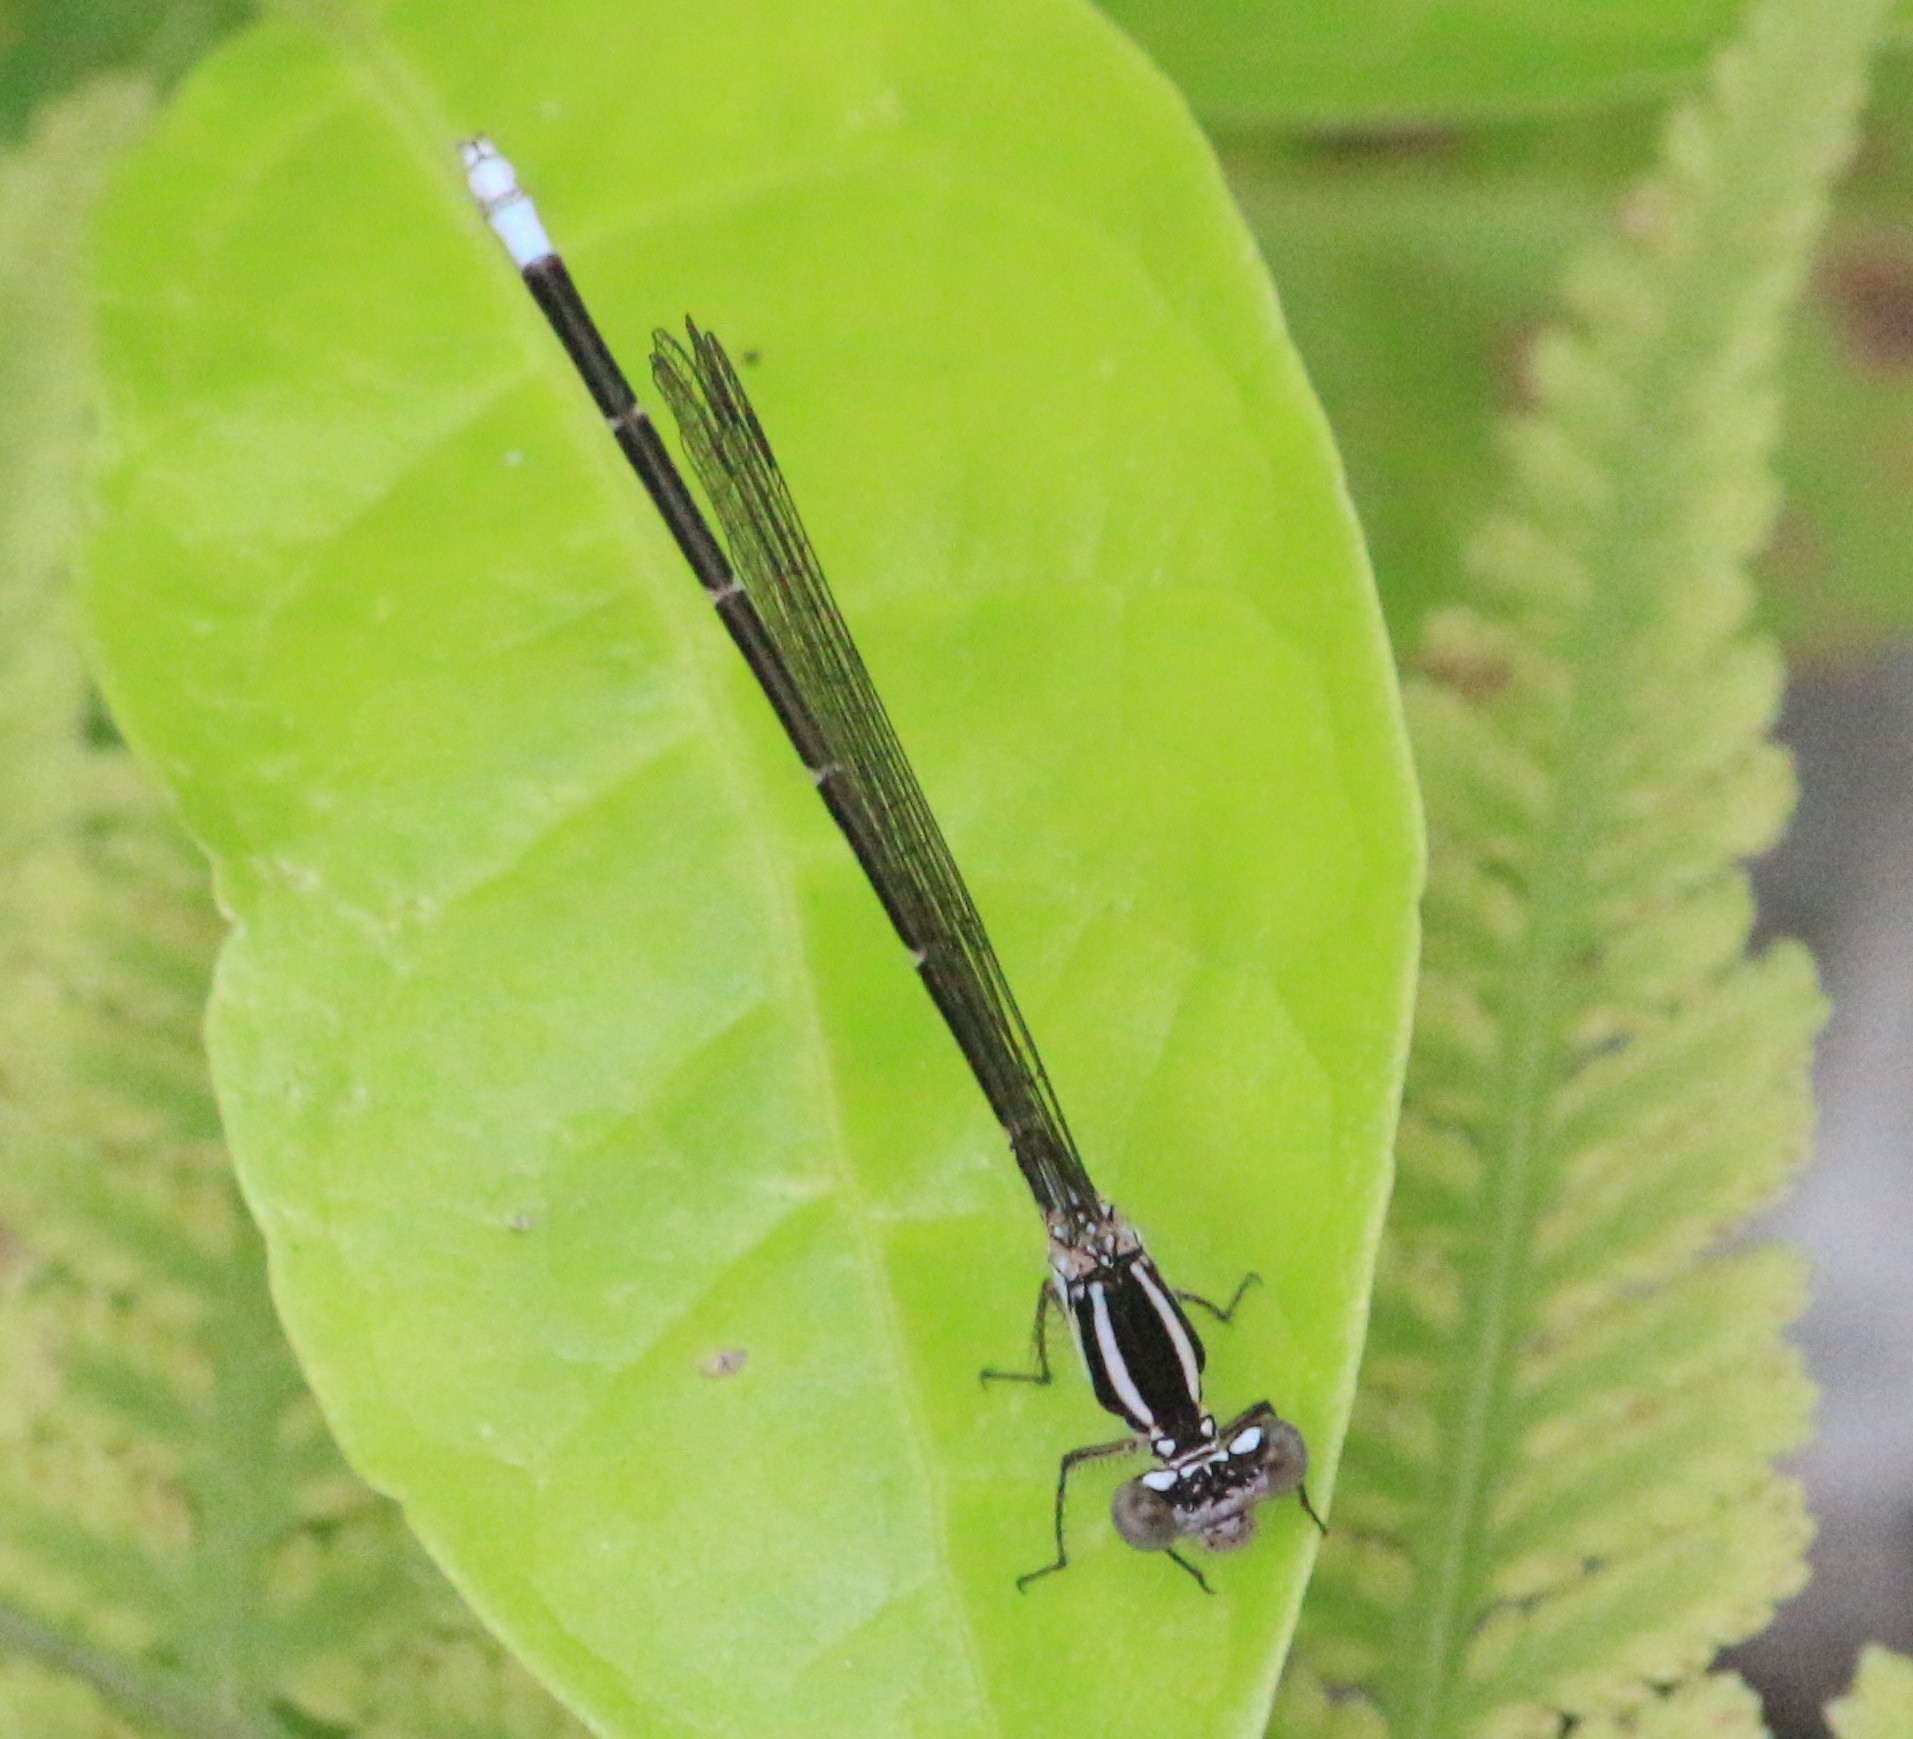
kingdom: Animalia
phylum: Arthropoda
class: Insecta
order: Odonata
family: Coenagrionidae
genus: Argia
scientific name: Argia pulla
